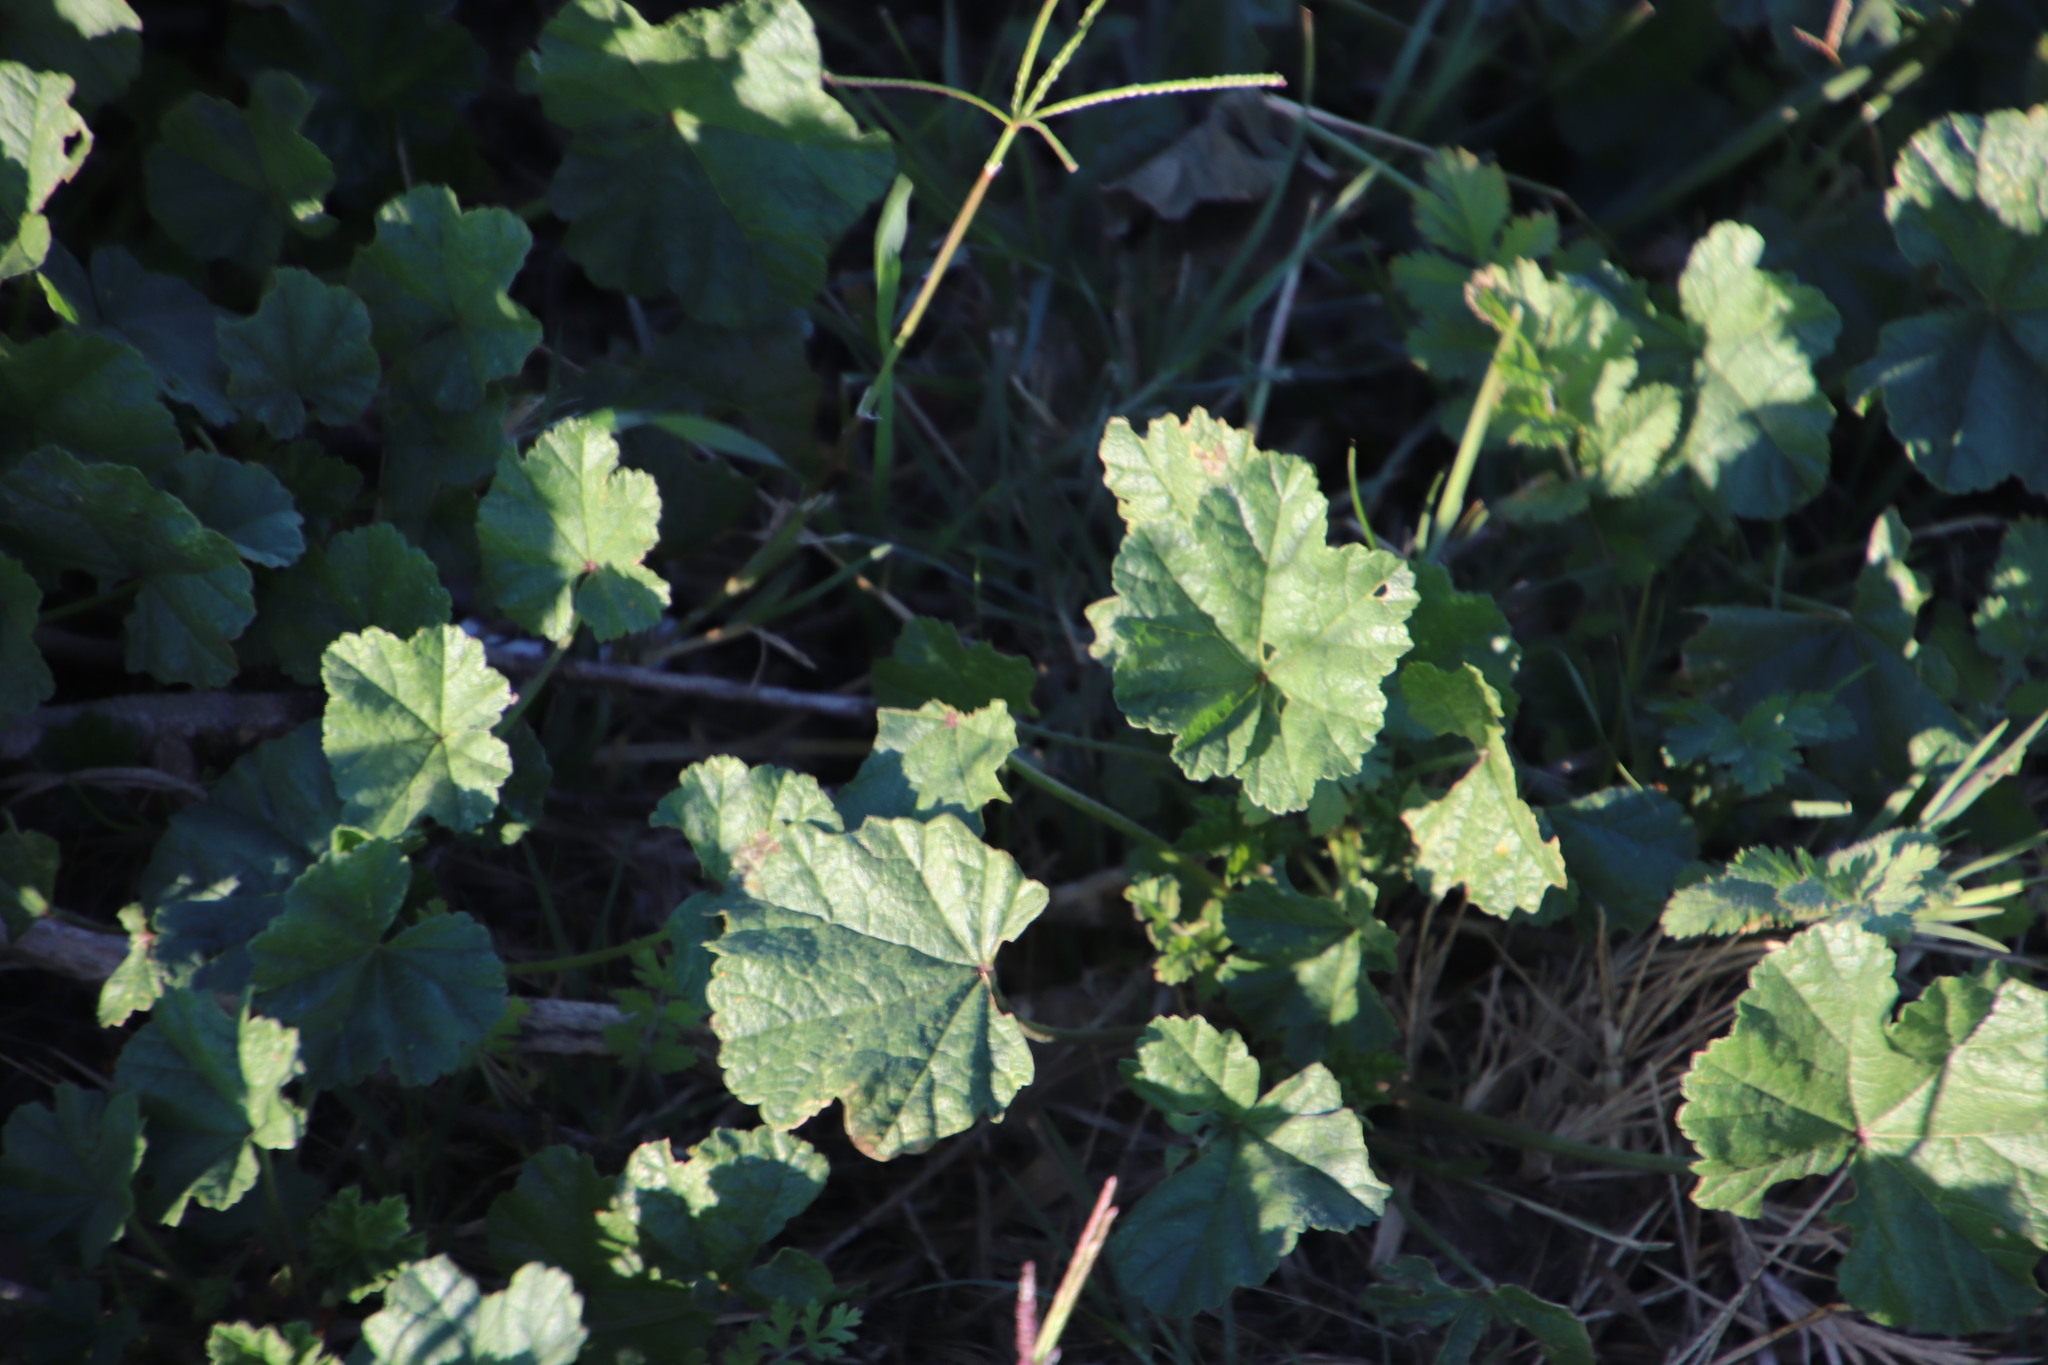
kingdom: Plantae
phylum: Tracheophyta
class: Magnoliopsida
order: Malvales
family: Malvaceae
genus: Malva
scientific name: Malva parviflora
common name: Least mallow
